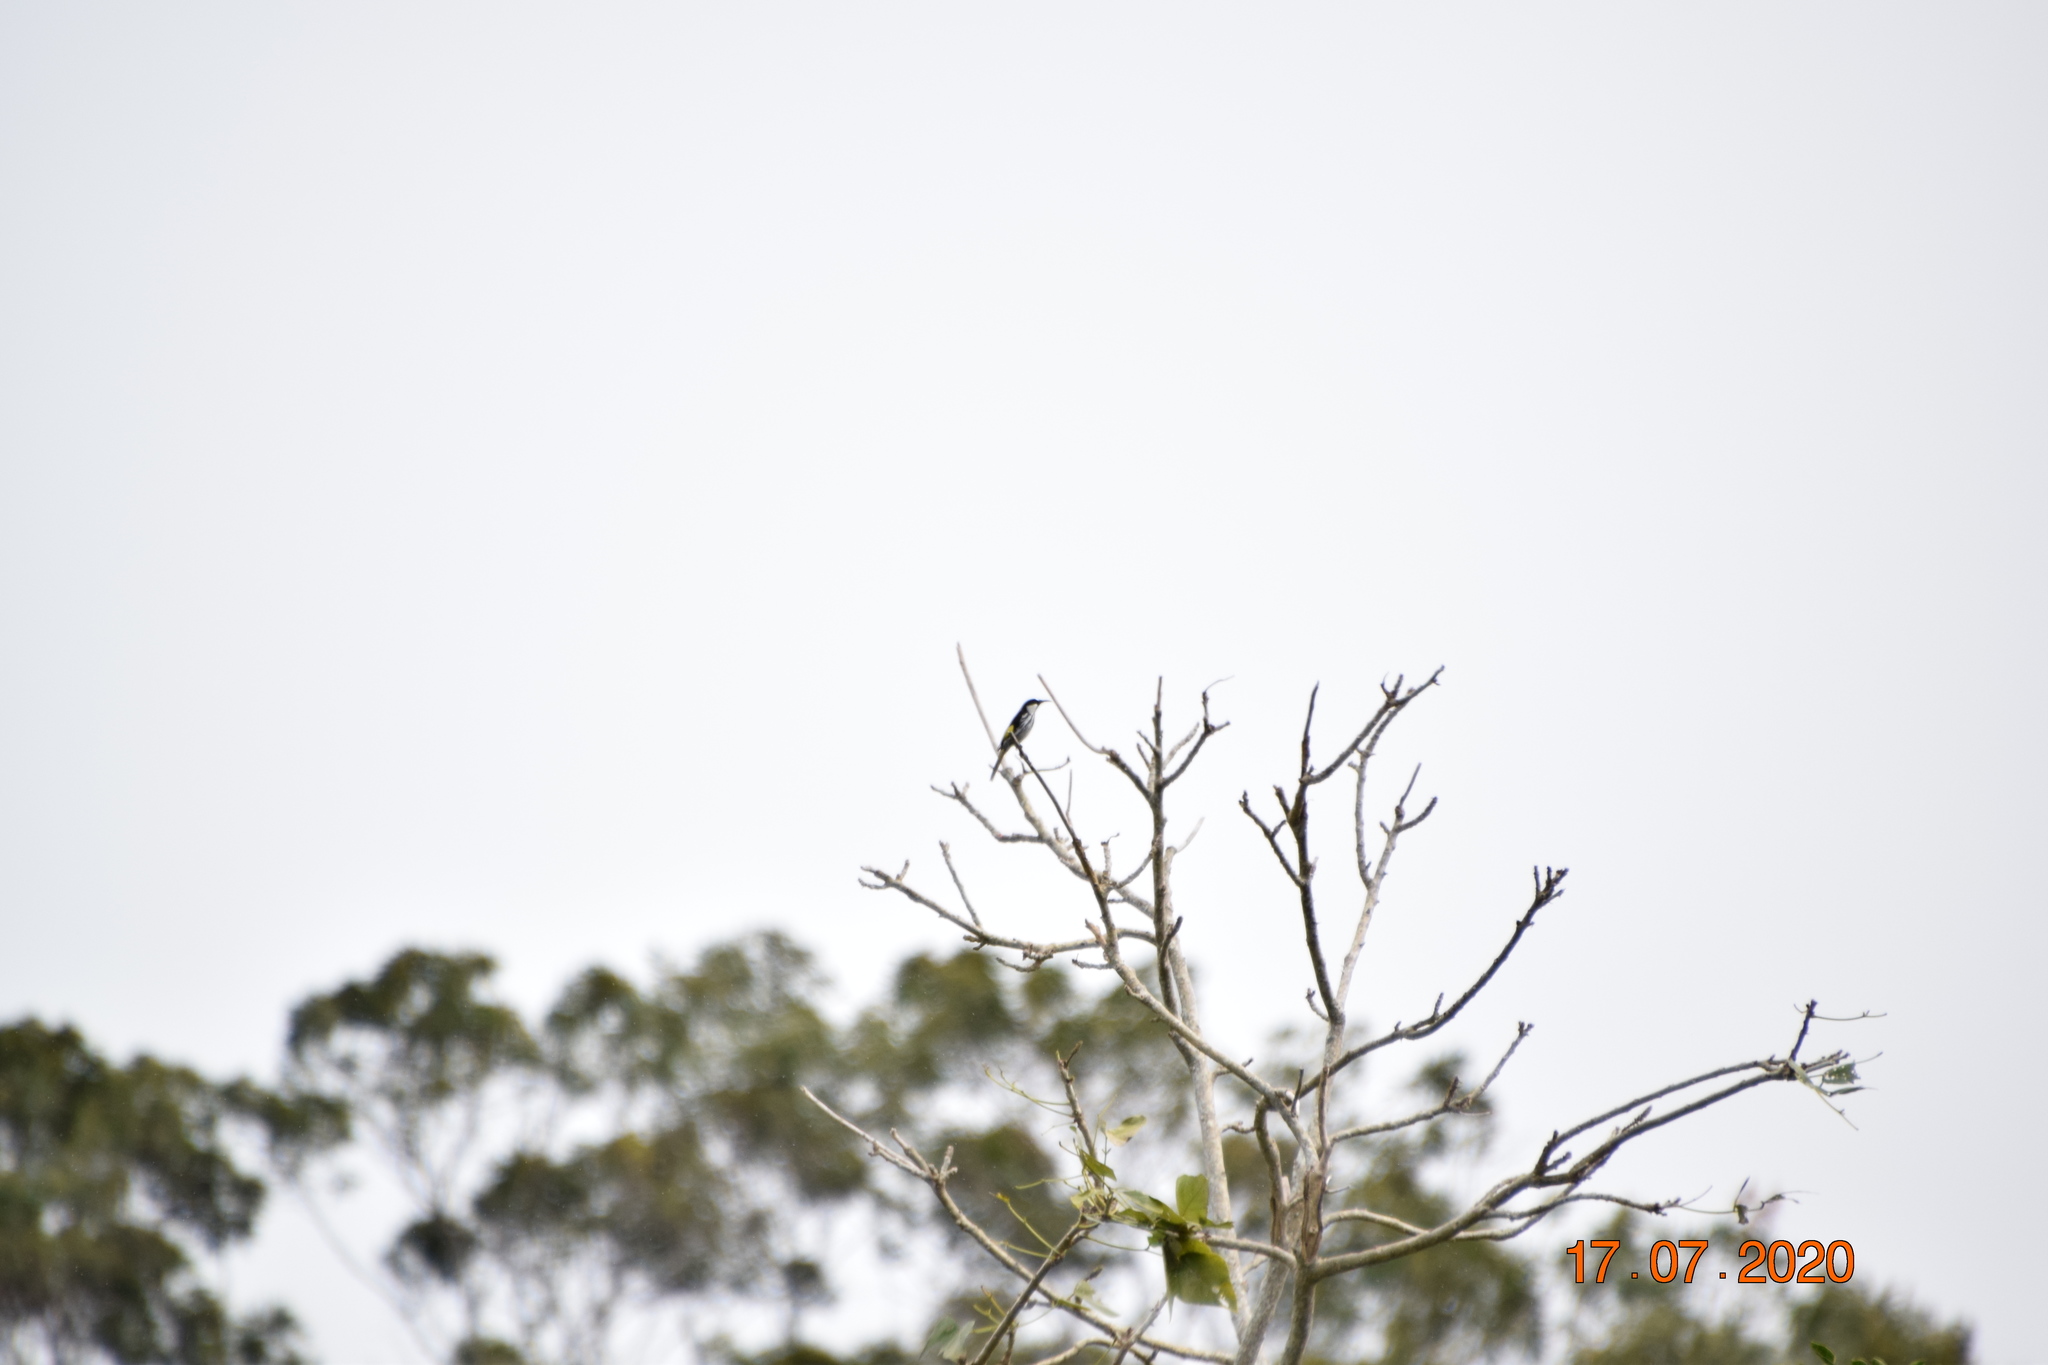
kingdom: Animalia
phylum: Chordata
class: Aves
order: Passeriformes
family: Meliphagidae
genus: Phylidonyris
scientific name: Phylidonyris niger
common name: White-cheeked honeyeater
